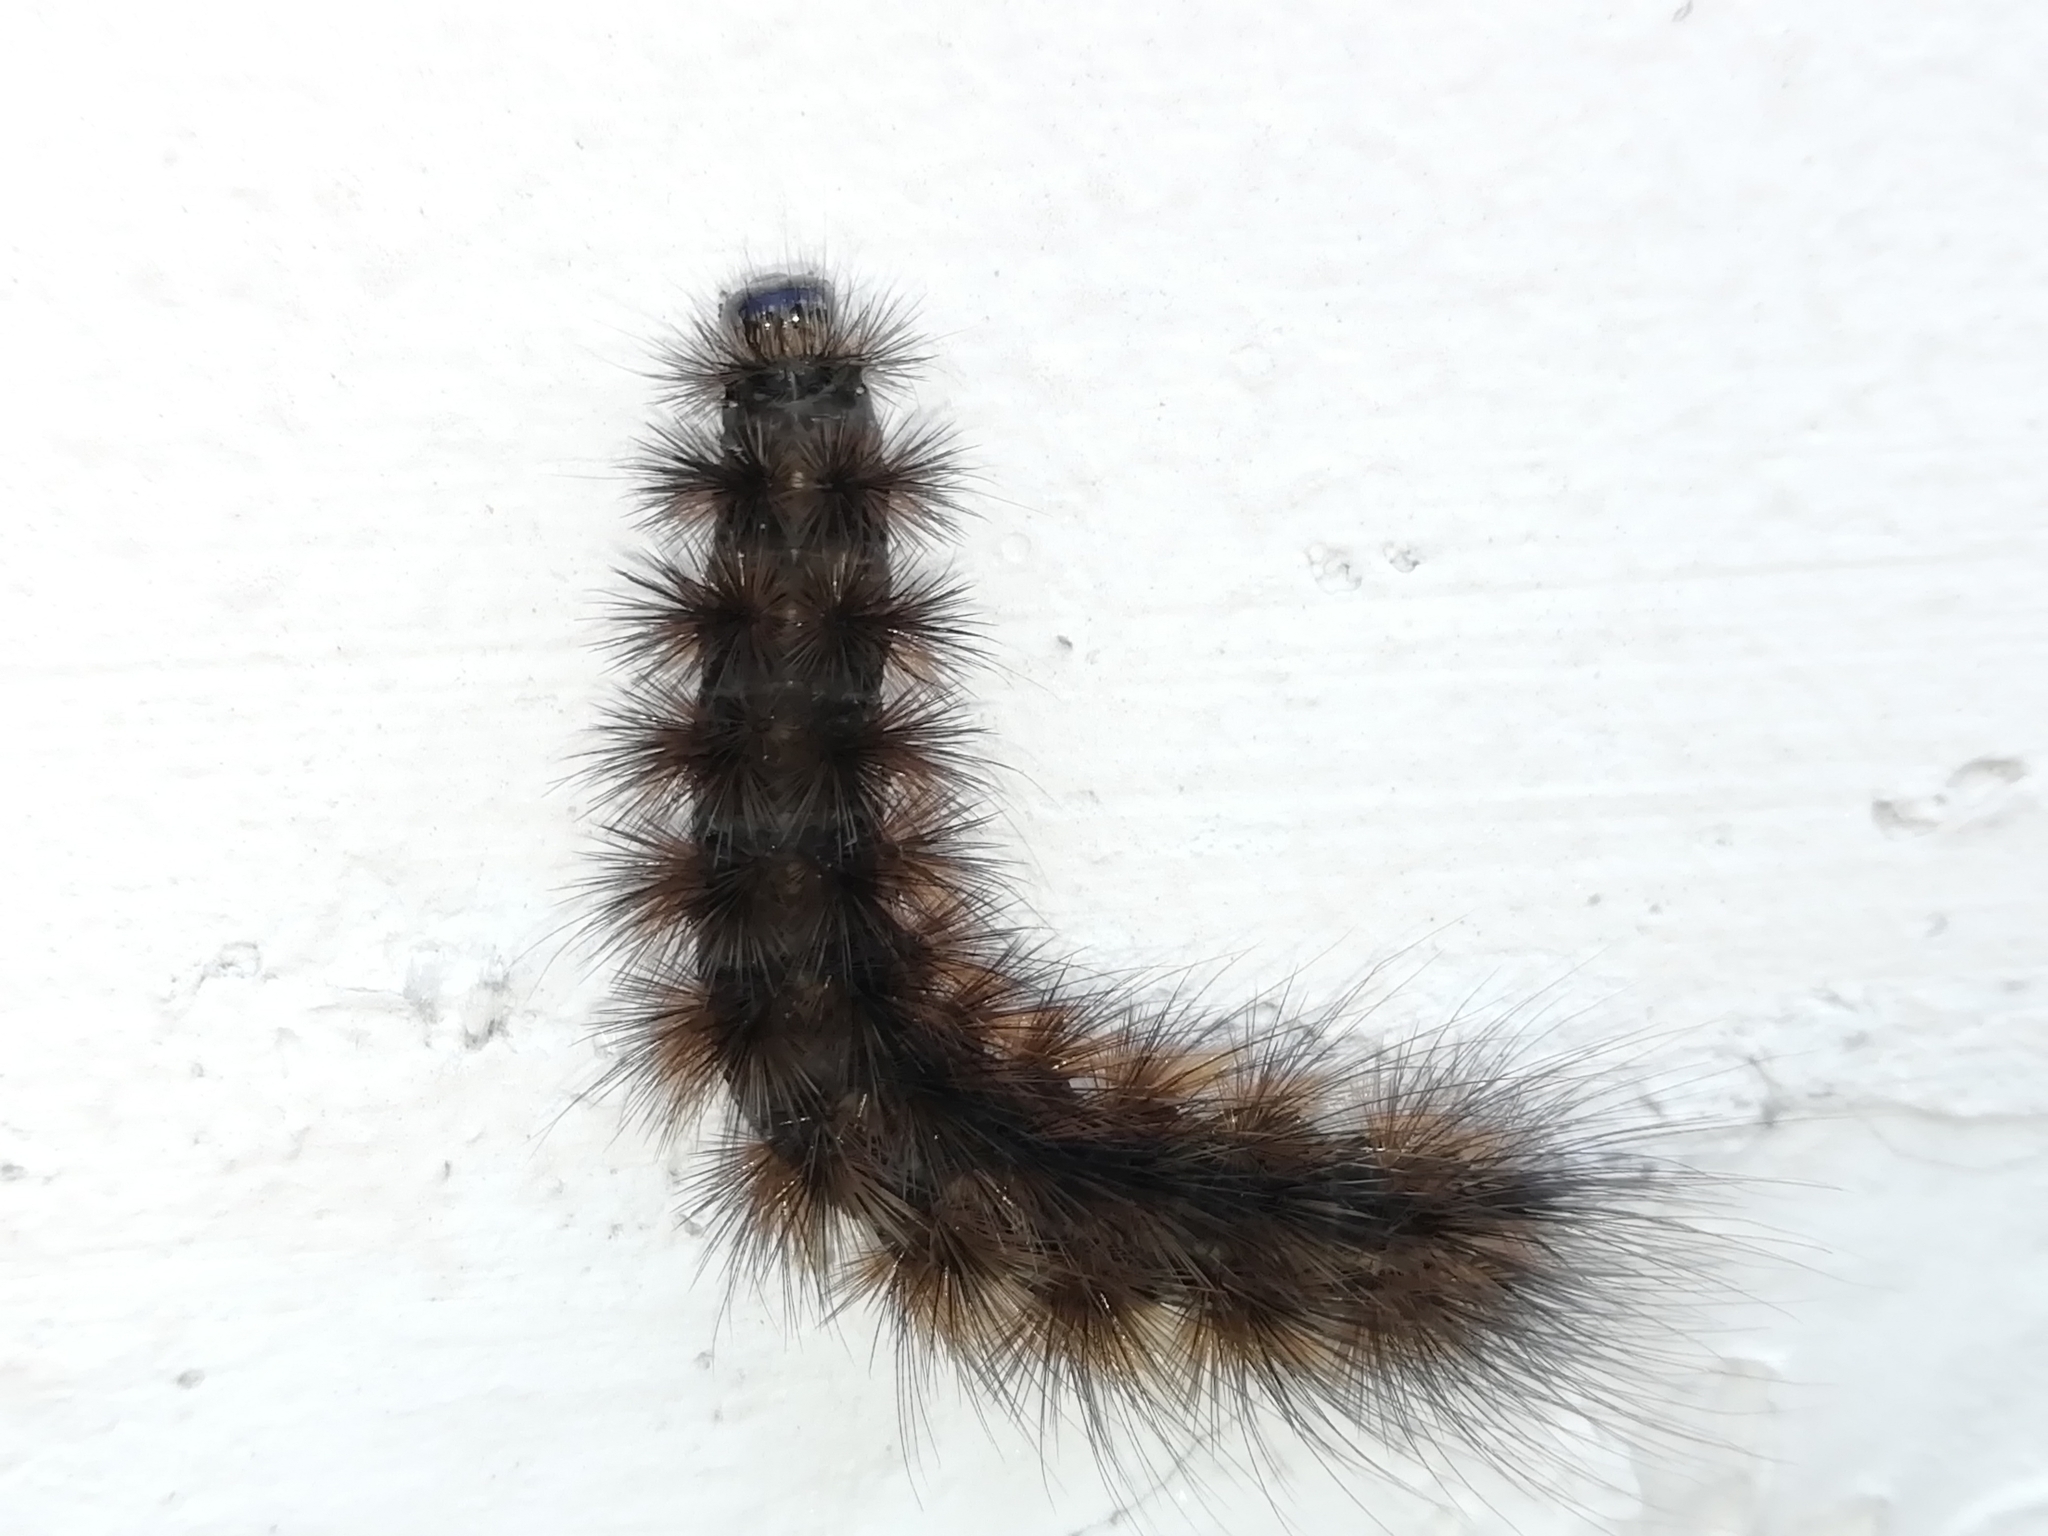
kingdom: Animalia
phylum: Arthropoda
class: Insecta
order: Lepidoptera
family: Erebidae
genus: Phragmatobia
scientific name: Phragmatobia fuliginosa
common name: Ruby tiger
